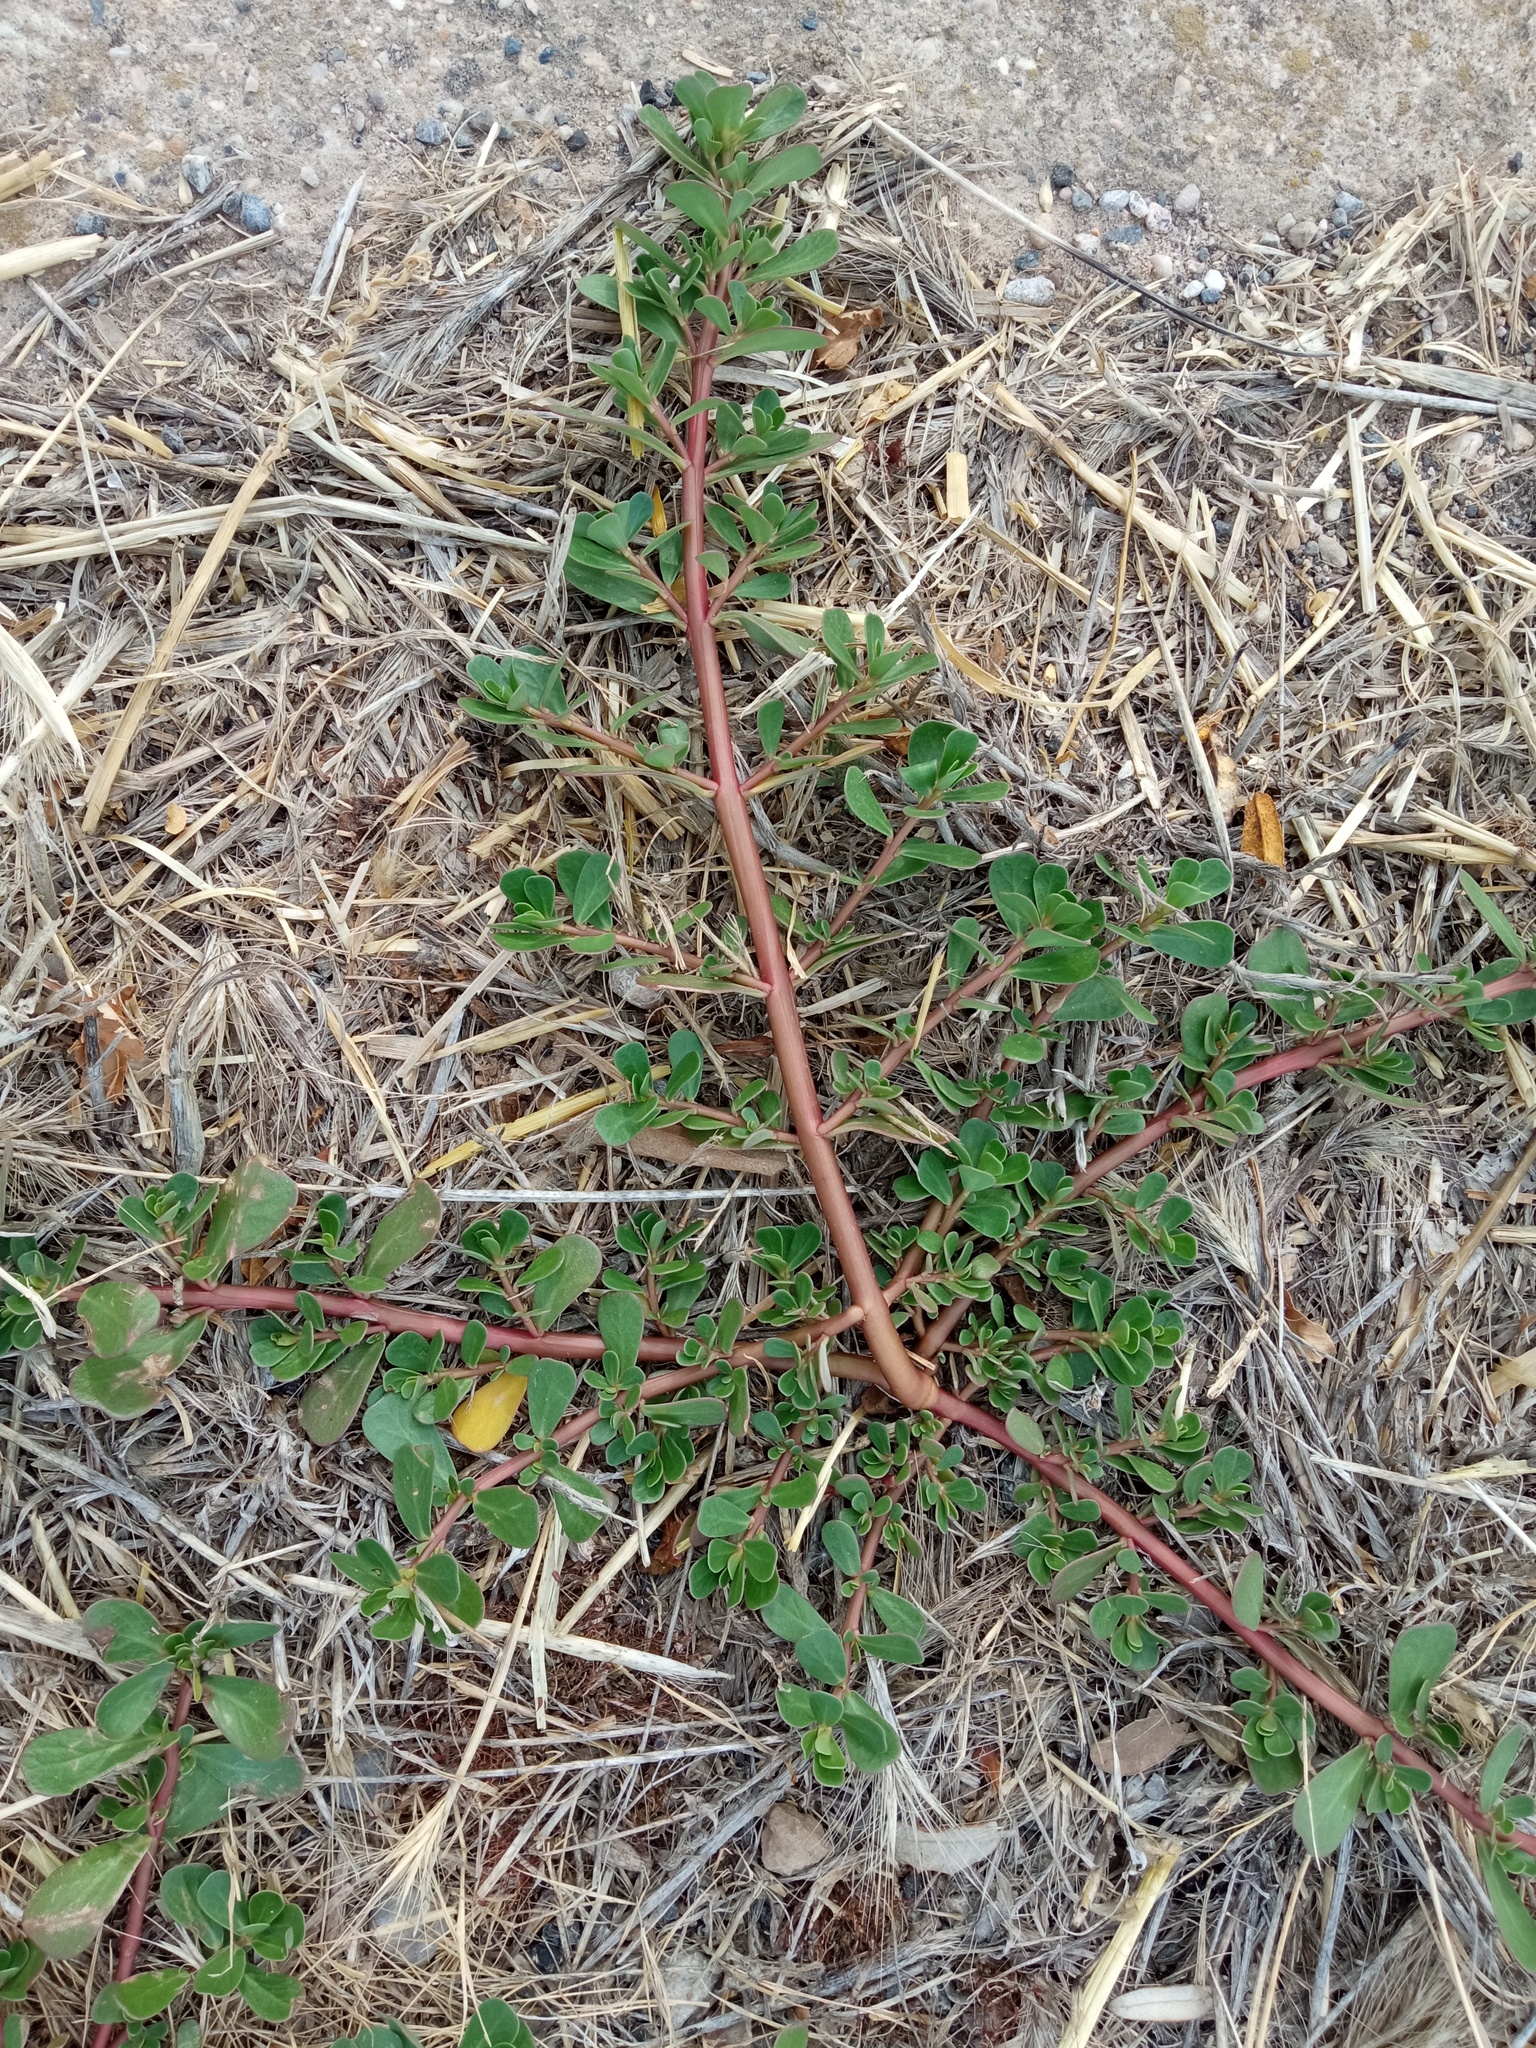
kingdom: Plantae
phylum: Tracheophyta
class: Magnoliopsida
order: Caryophyllales
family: Portulacaceae
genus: Portulaca
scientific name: Portulaca oleracea
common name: Common purslane
